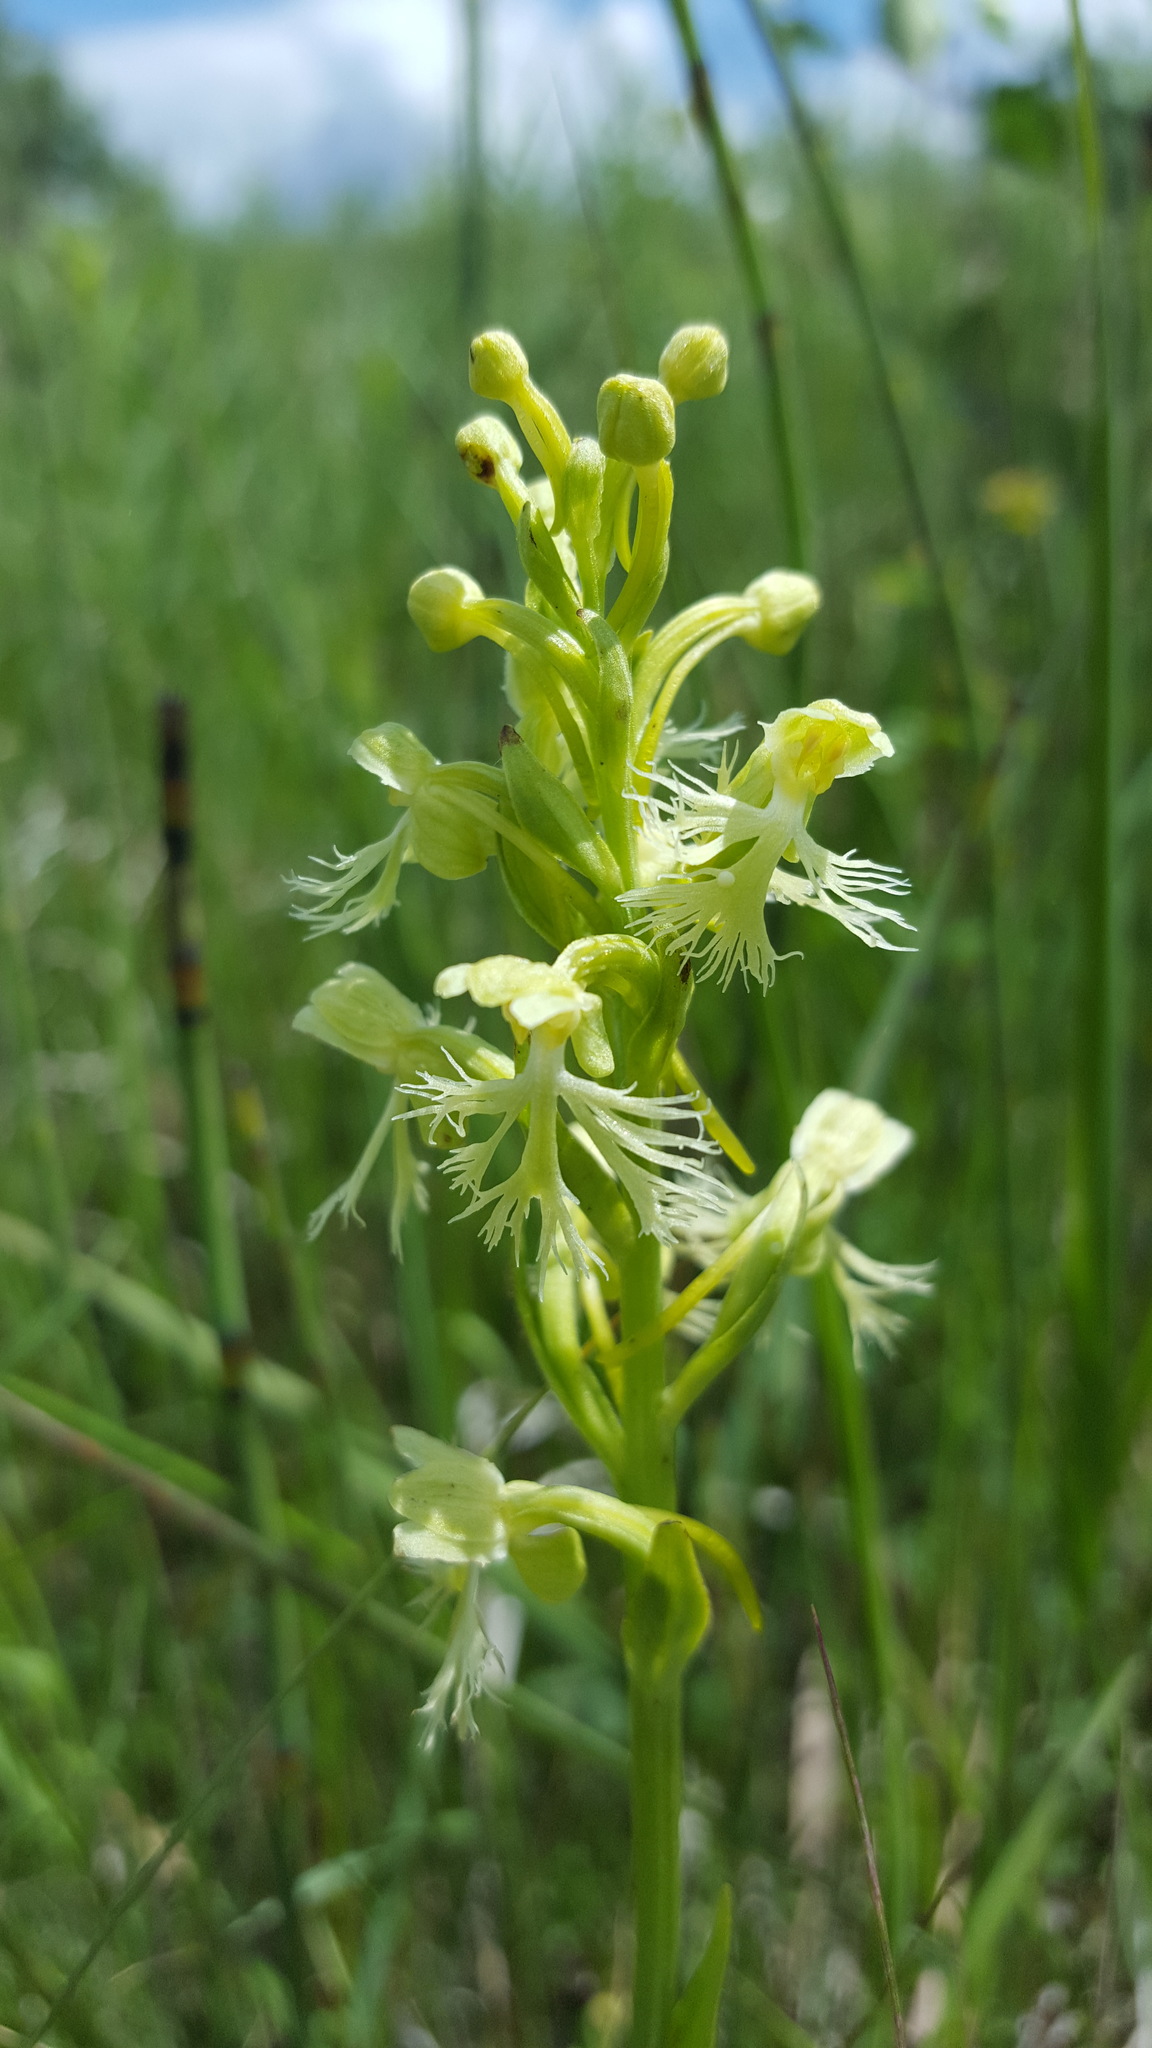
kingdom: Plantae
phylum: Tracheophyta
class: Liliopsida
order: Asparagales
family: Orchidaceae
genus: Platanthera
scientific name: Platanthera lacera
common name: Green fringed orchid
